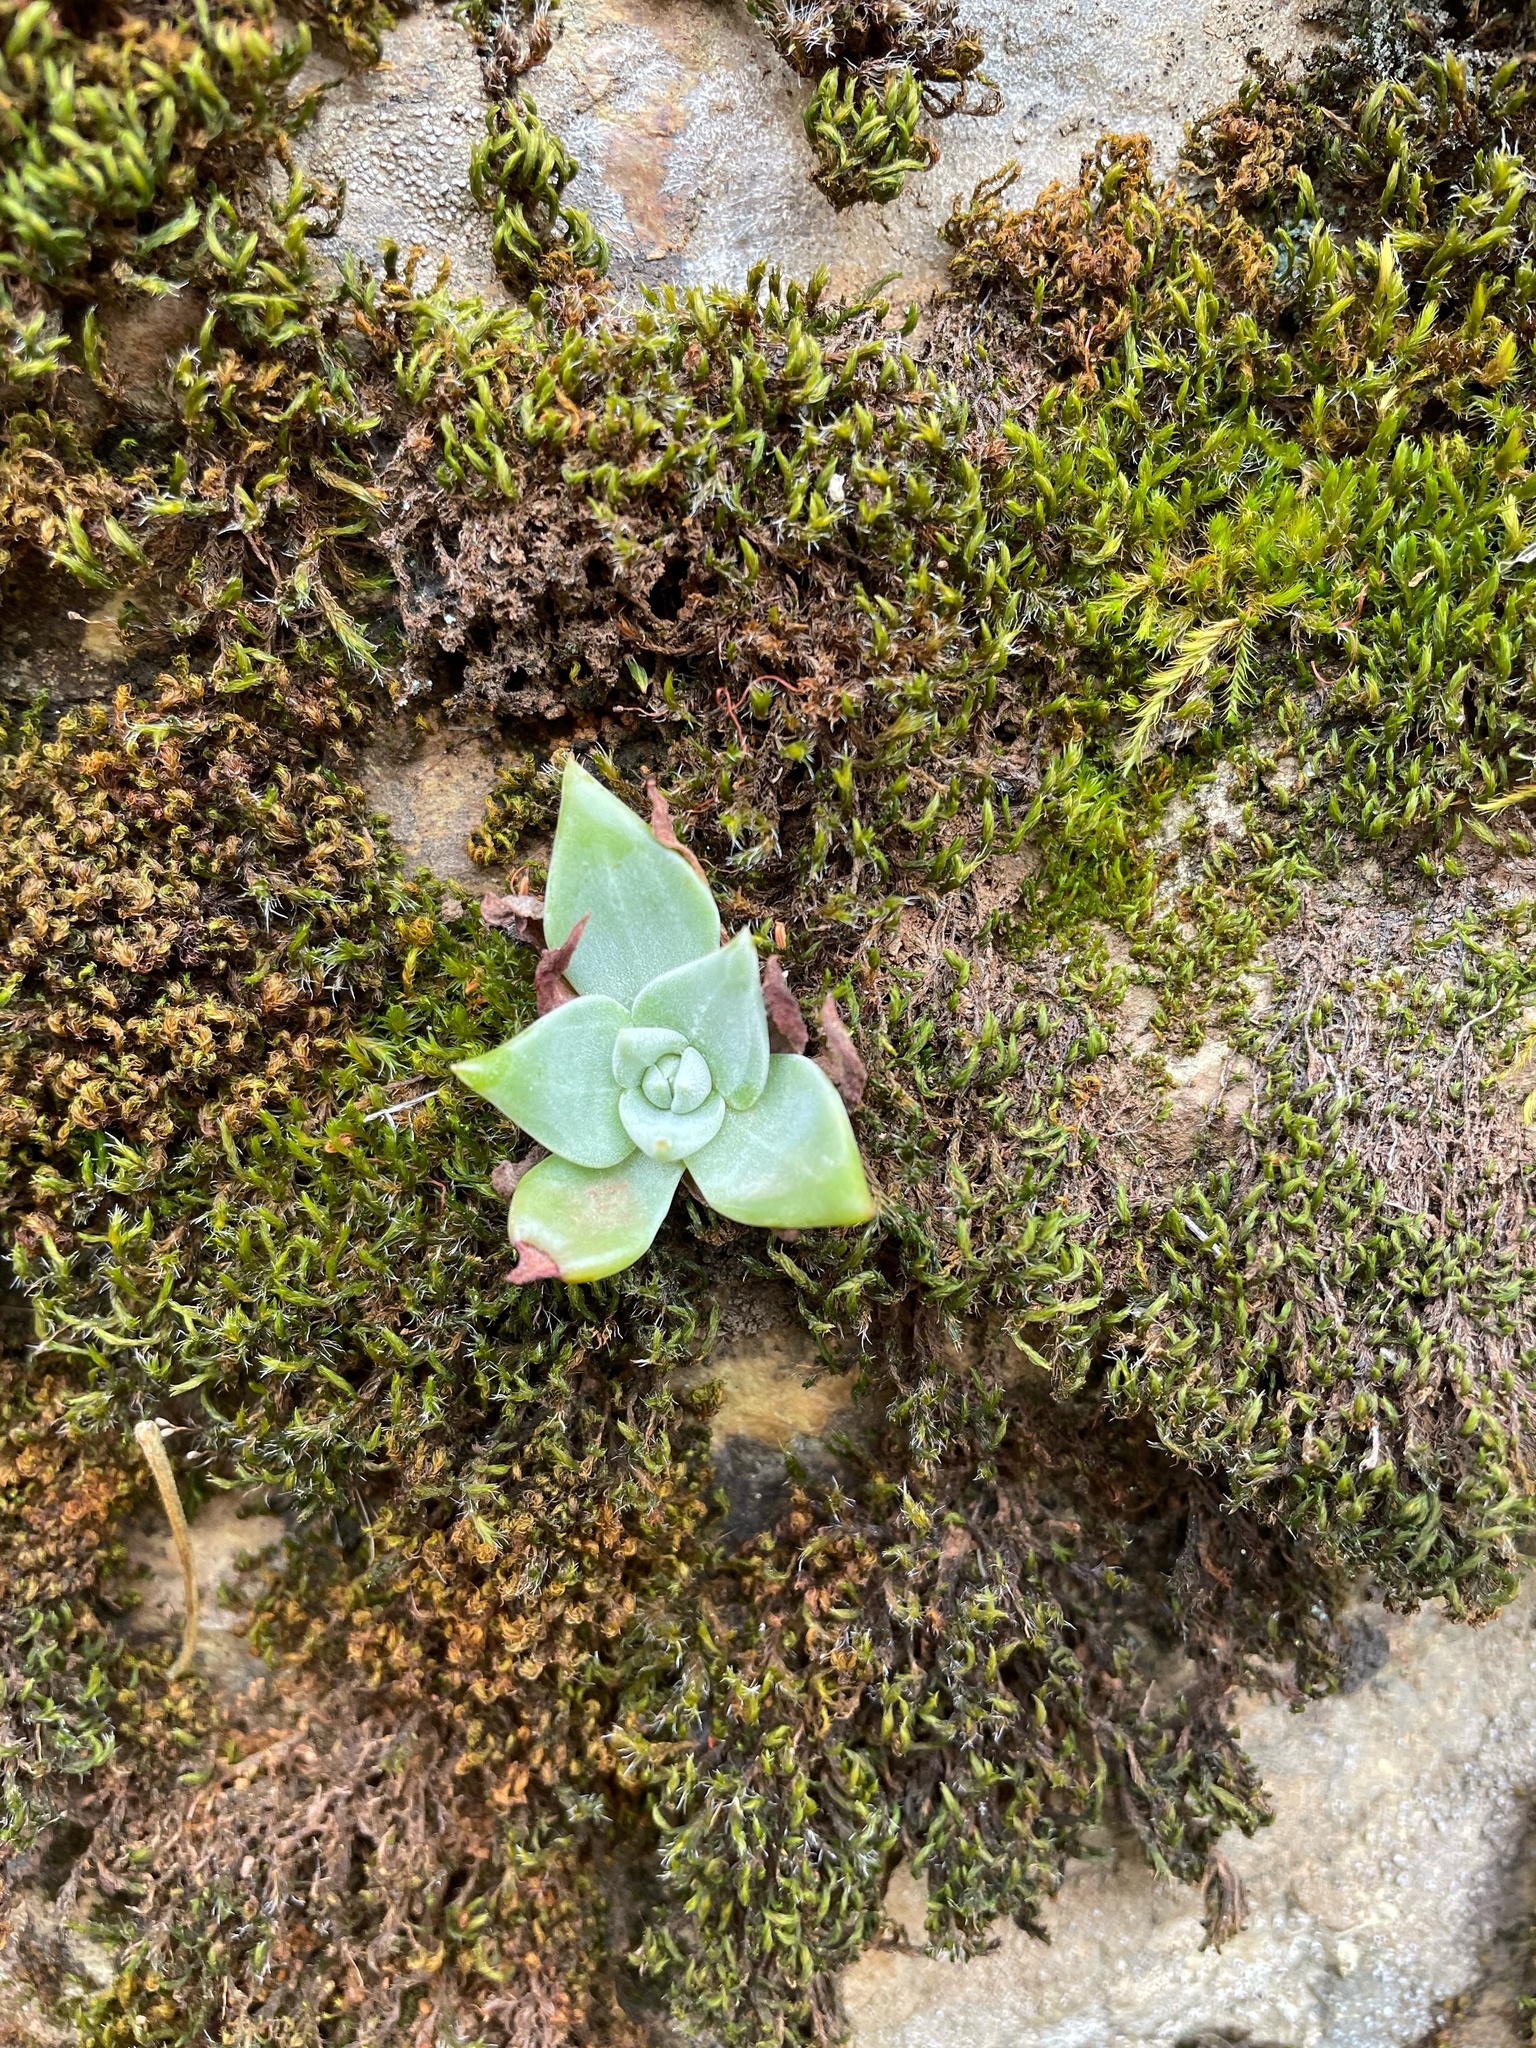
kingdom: Plantae
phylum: Tracheophyta
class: Magnoliopsida
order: Saxifragales
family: Crassulaceae
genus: Dudleya
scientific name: Dudleya cymosa
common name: Canyon dudleya
